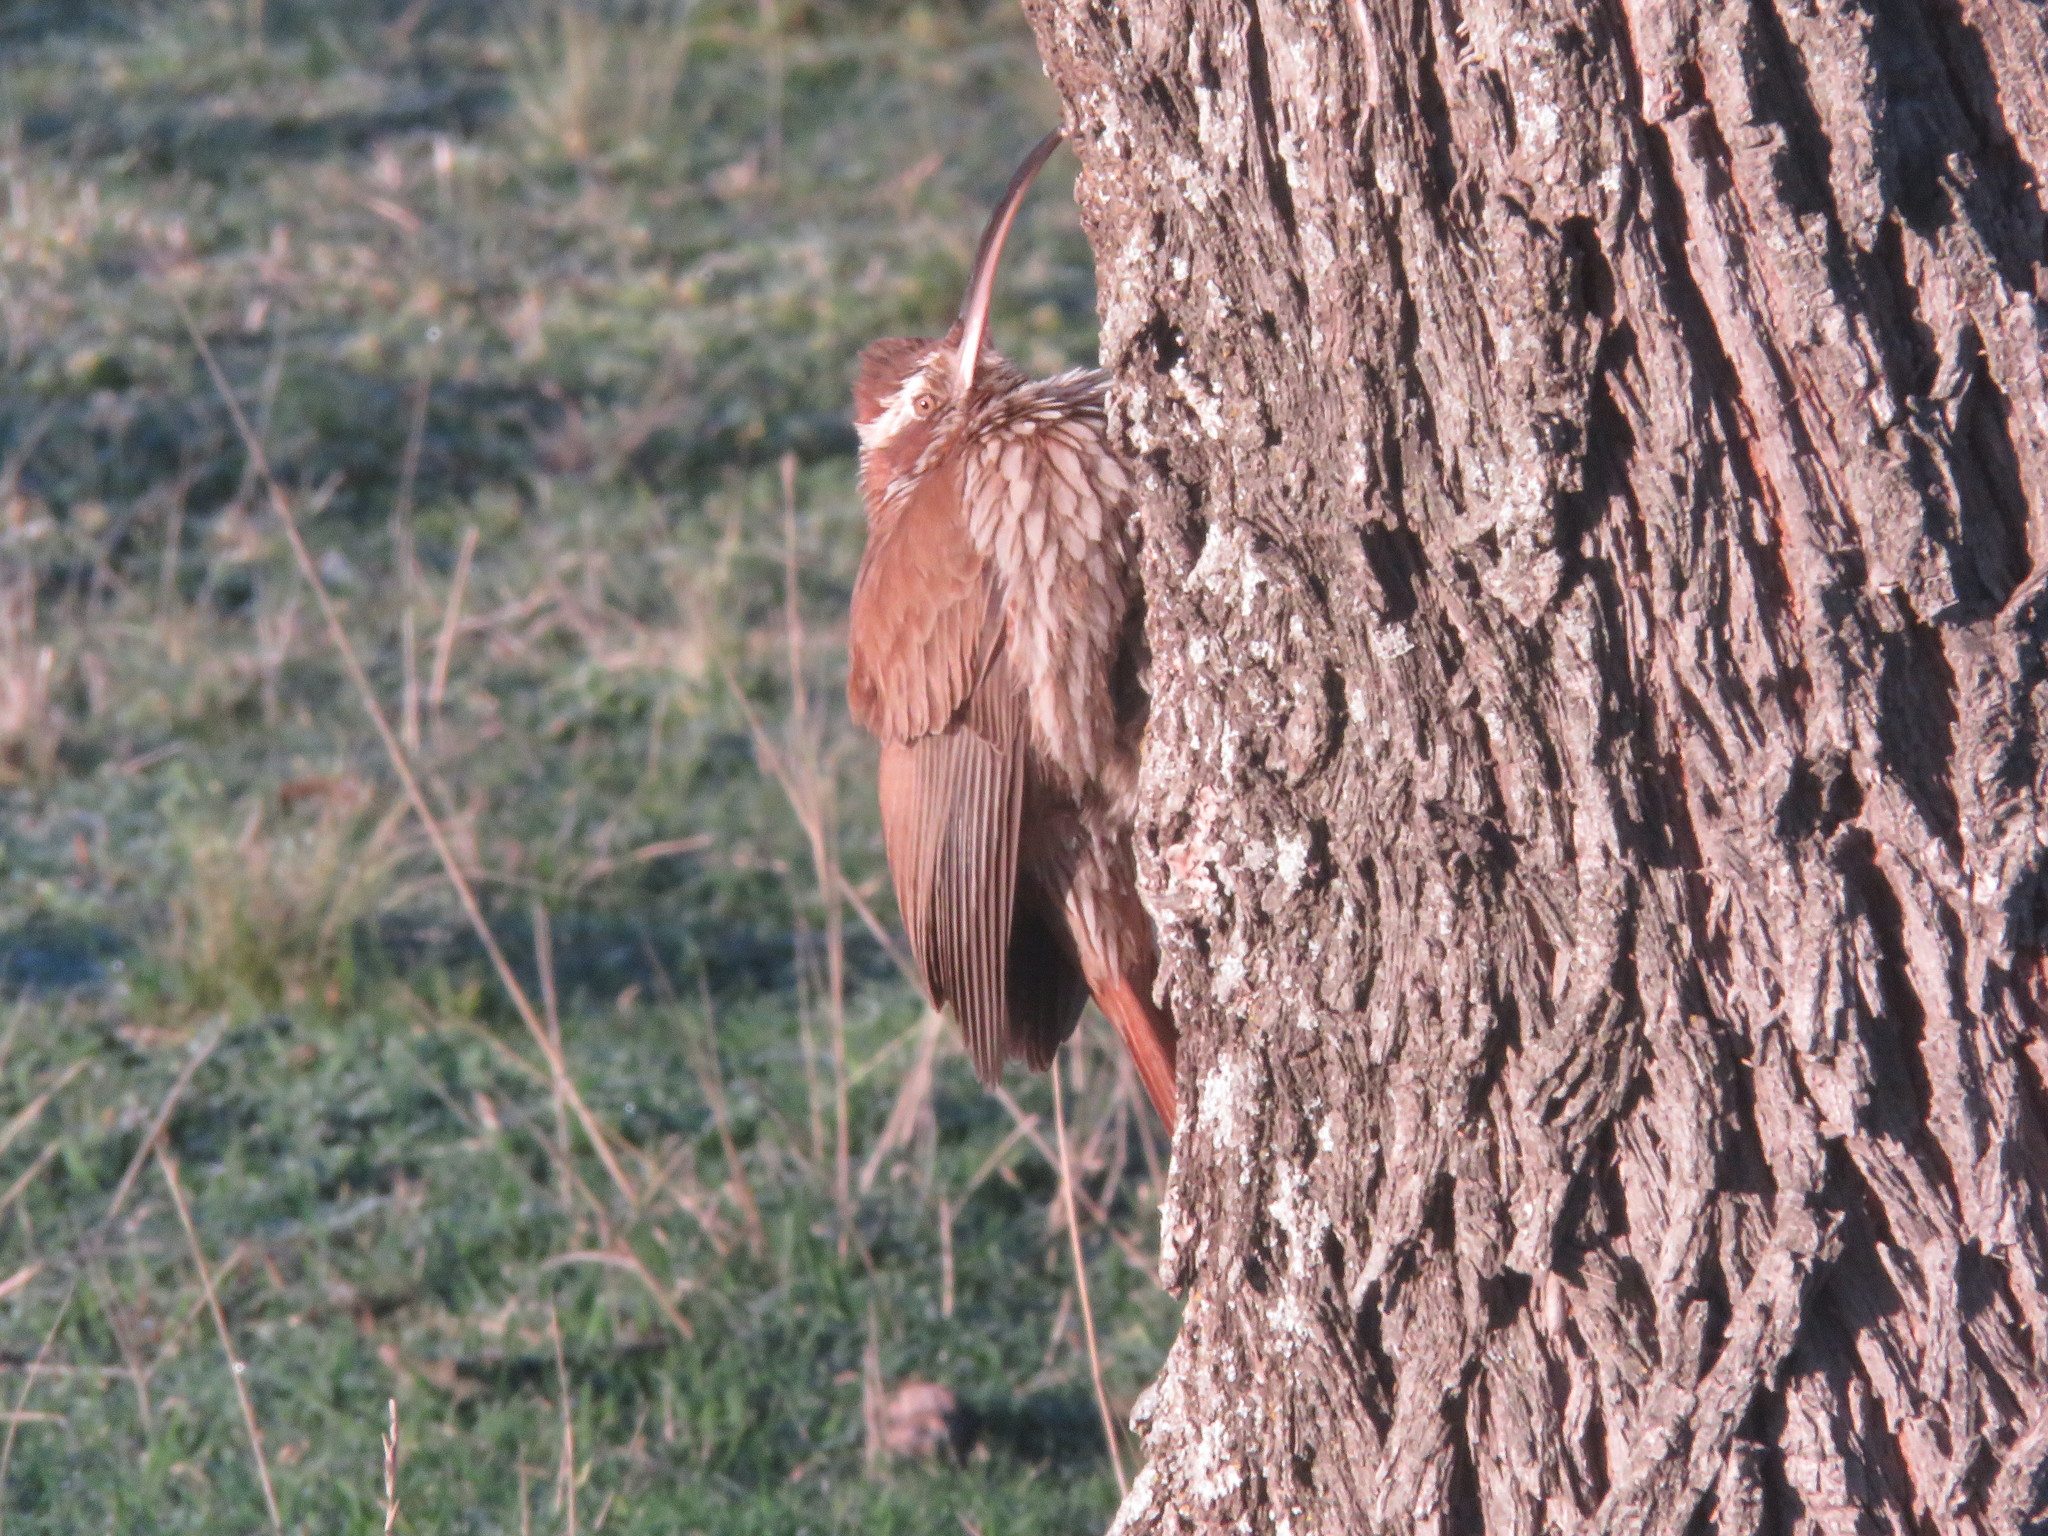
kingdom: Animalia
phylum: Chordata
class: Aves
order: Passeriformes
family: Furnariidae
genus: Drymornis
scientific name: Drymornis bridgesii
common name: Scimitar-billed woodcreeper
